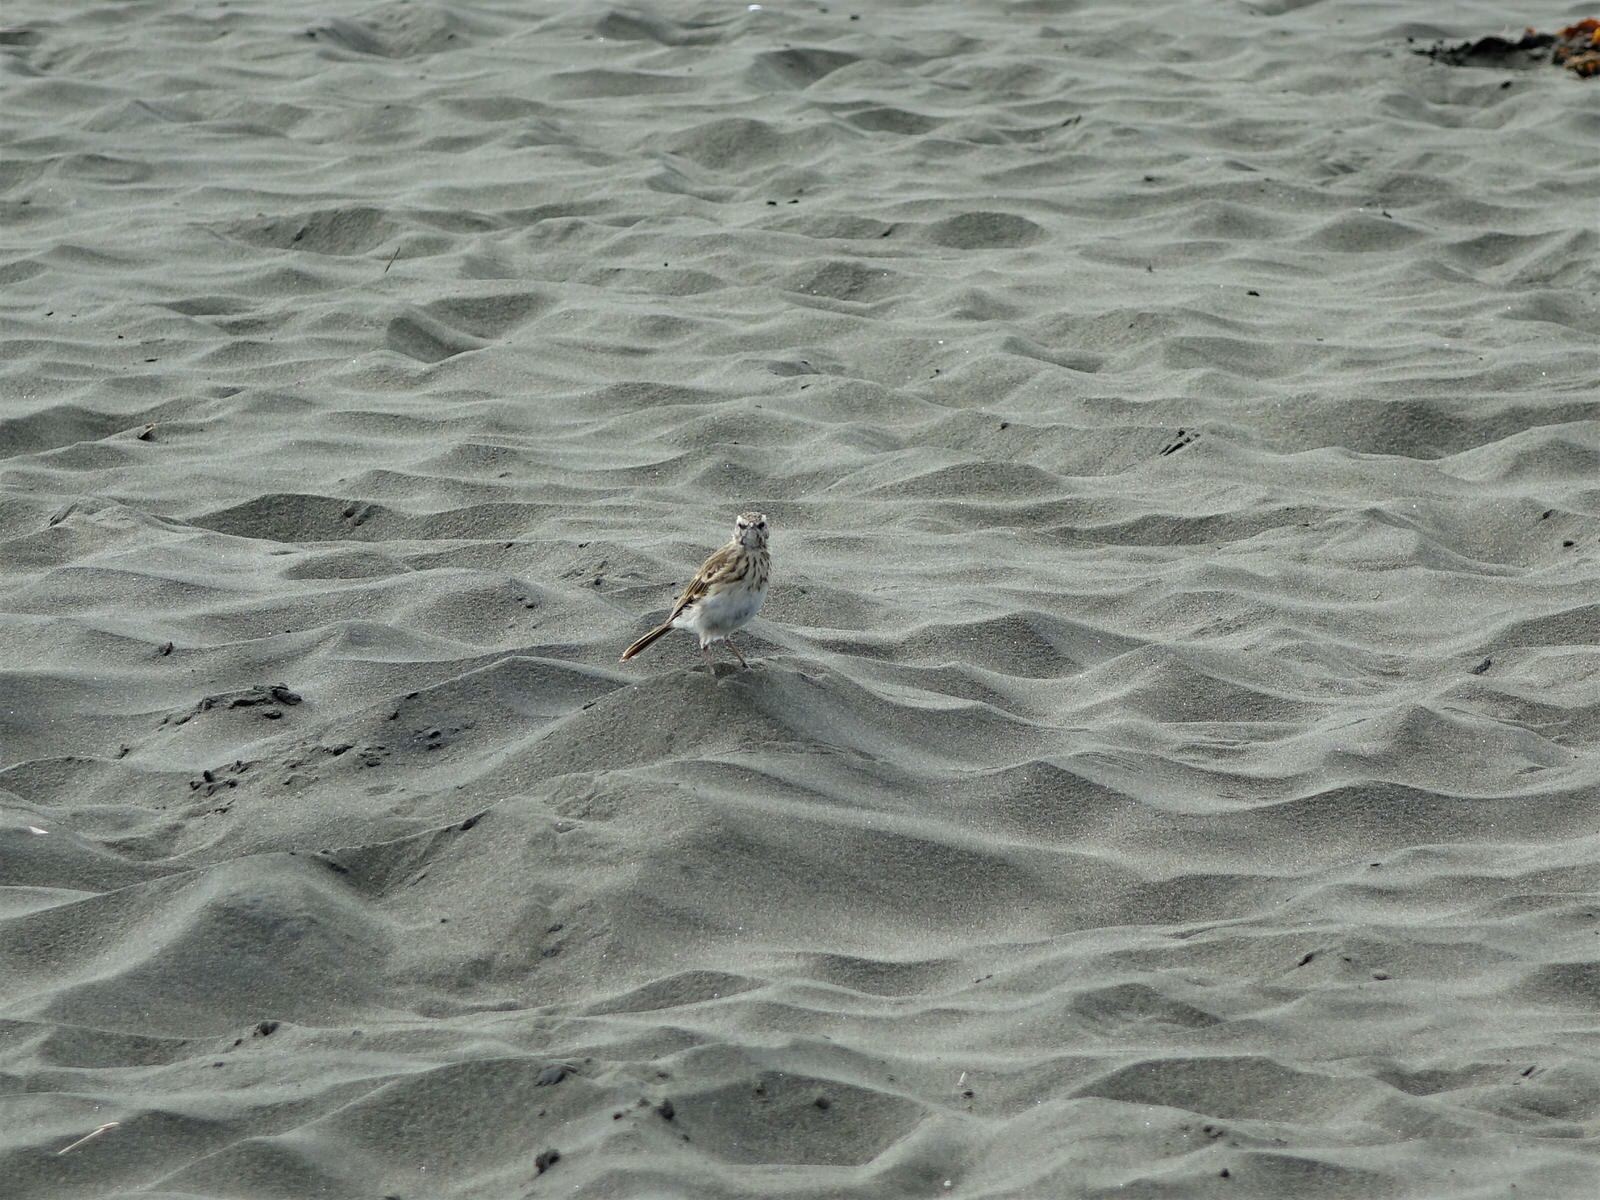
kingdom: Animalia
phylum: Chordata
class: Aves
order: Passeriformes
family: Motacillidae
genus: Anthus
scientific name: Anthus novaeseelandiae
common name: New zealand pipit
